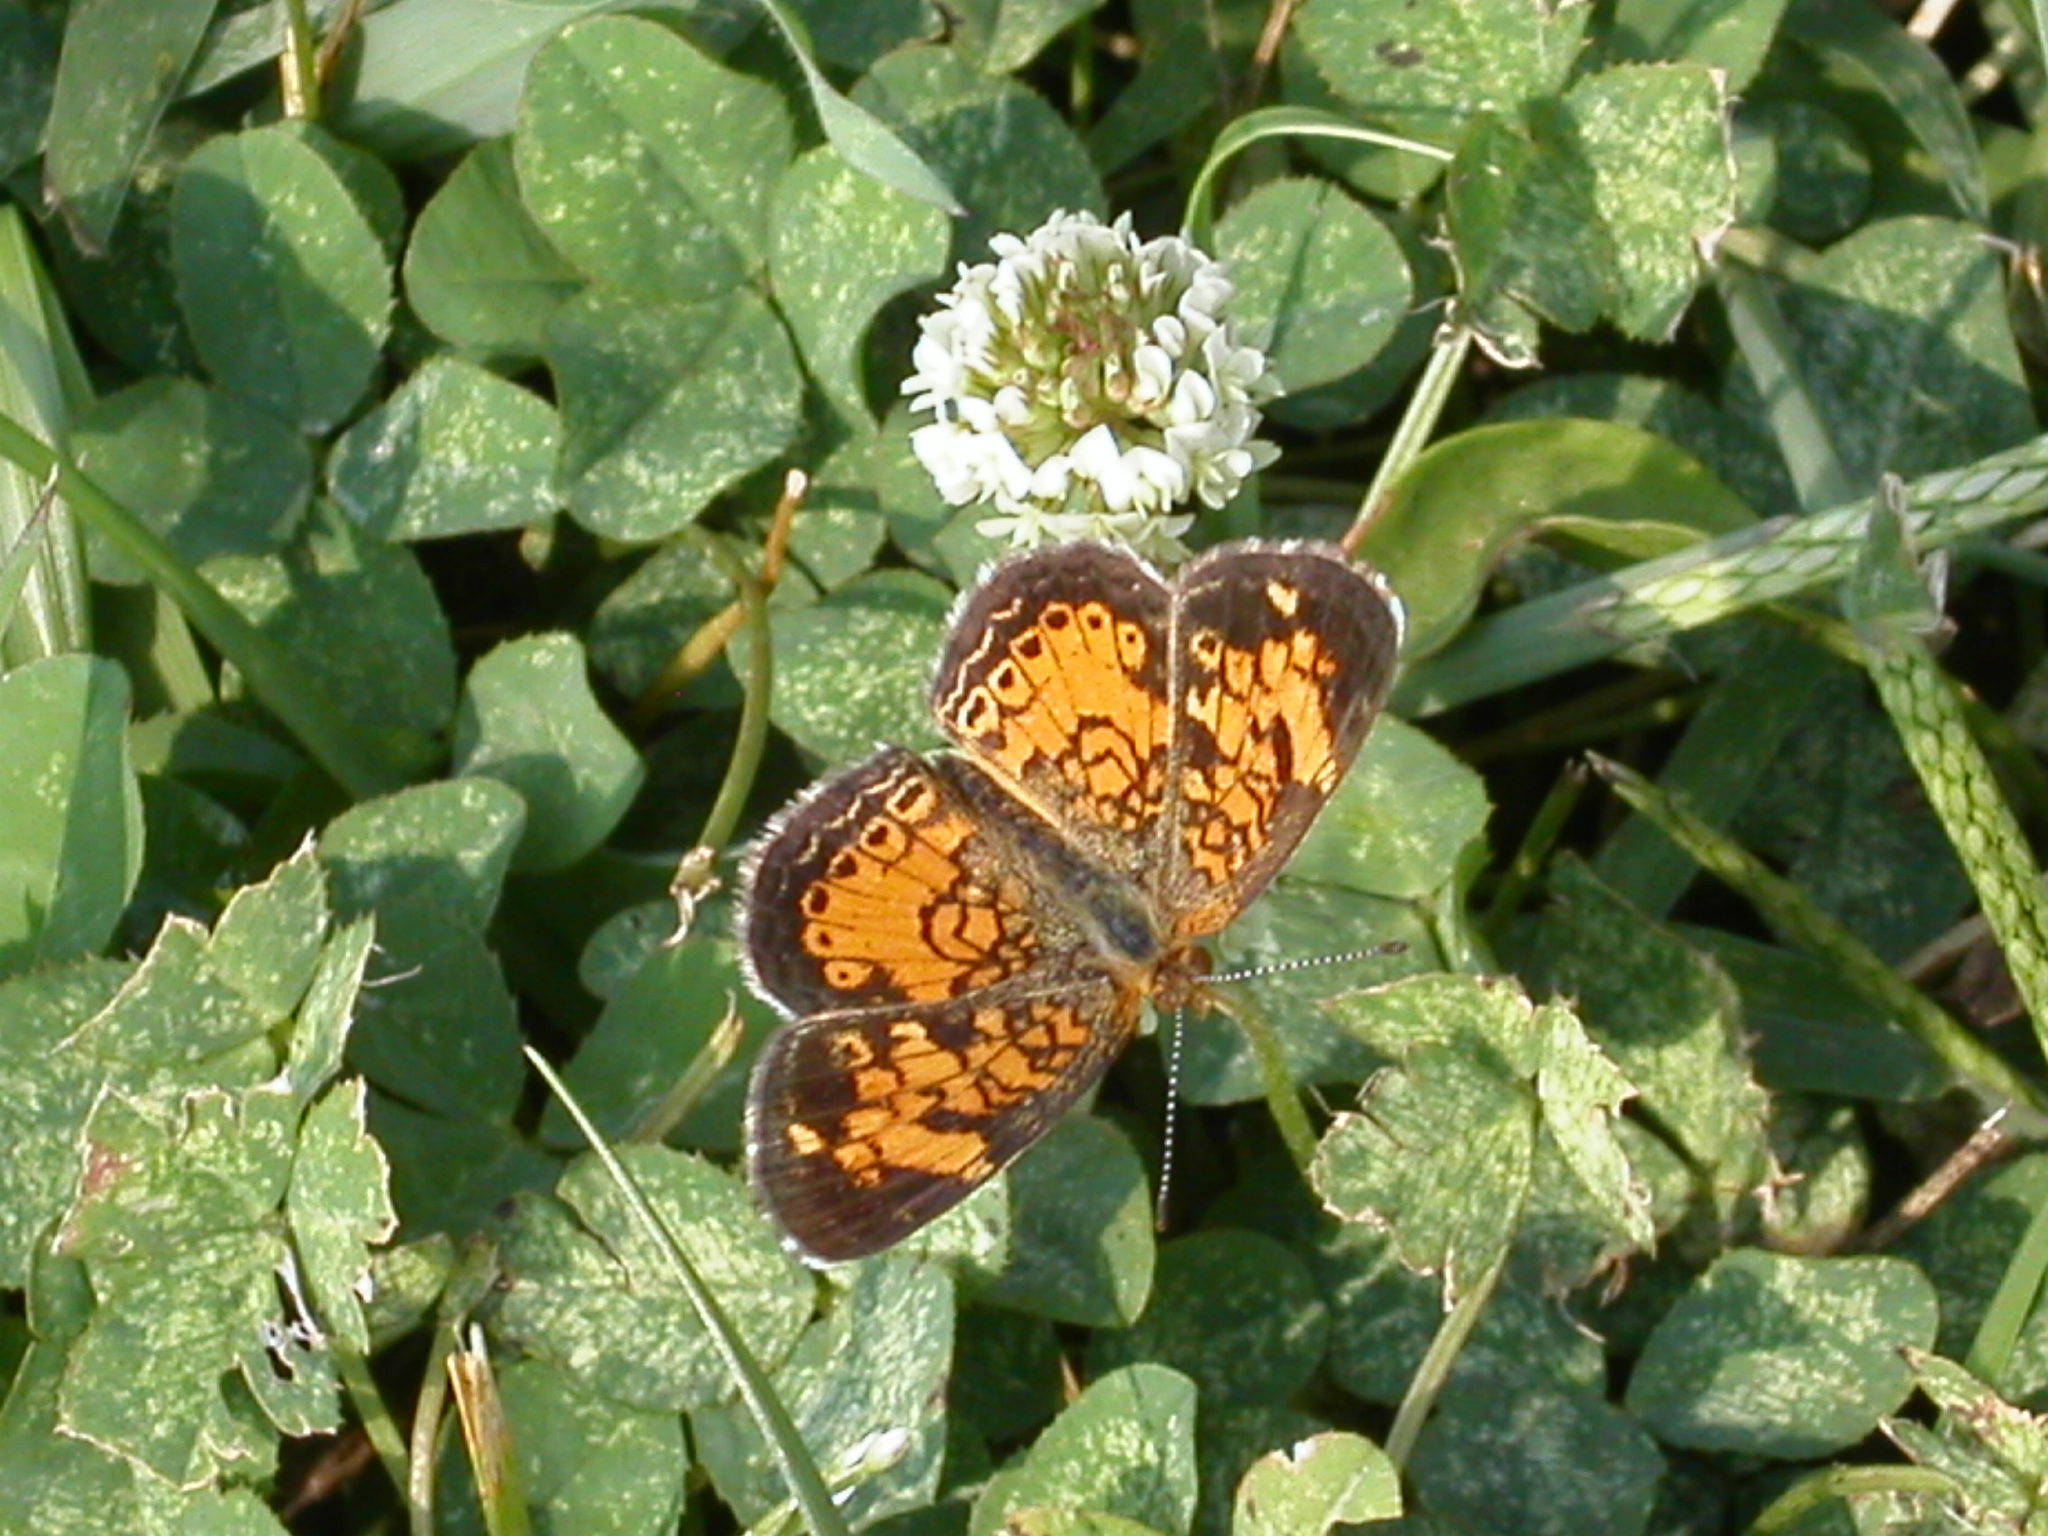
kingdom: Animalia
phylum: Arthropoda
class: Insecta
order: Lepidoptera
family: Nymphalidae
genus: Phyciodes
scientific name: Phyciodes tharos
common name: Pearl crescent
